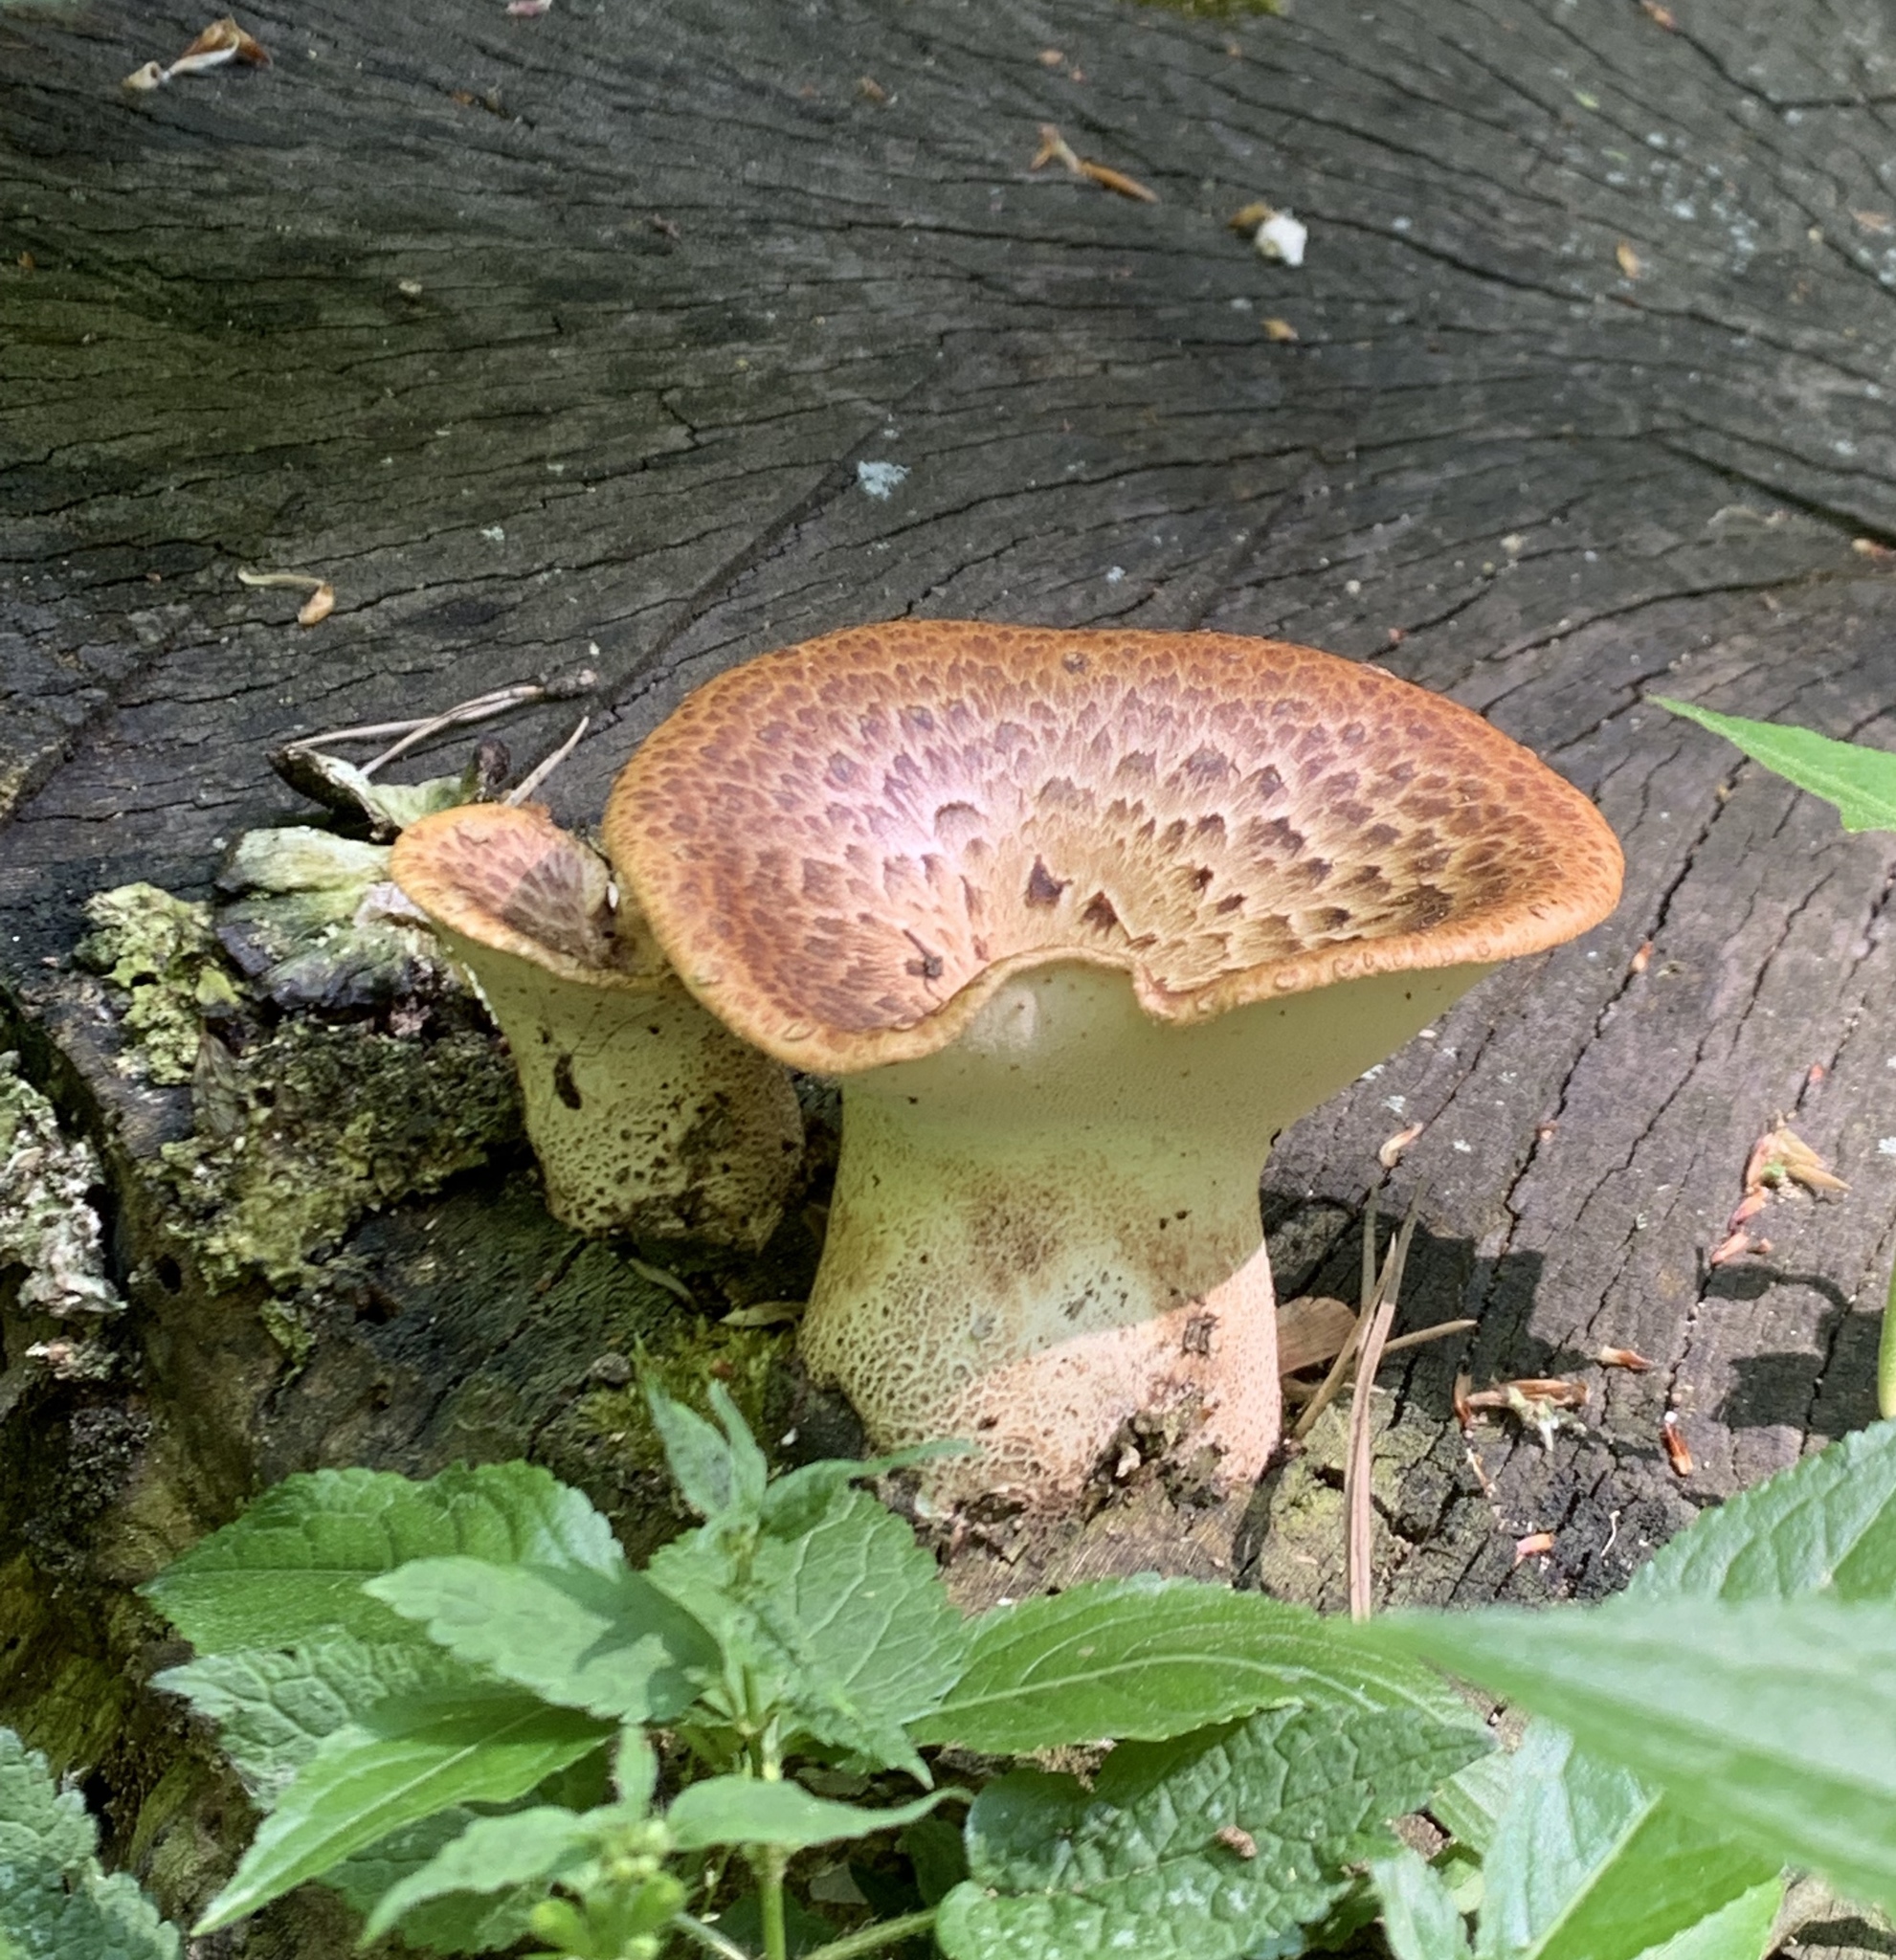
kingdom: Fungi
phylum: Basidiomycota
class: Agaricomycetes
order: Polyporales
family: Polyporaceae
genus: Cerioporus
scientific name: Cerioporus squamosus
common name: Dryad's saddle
